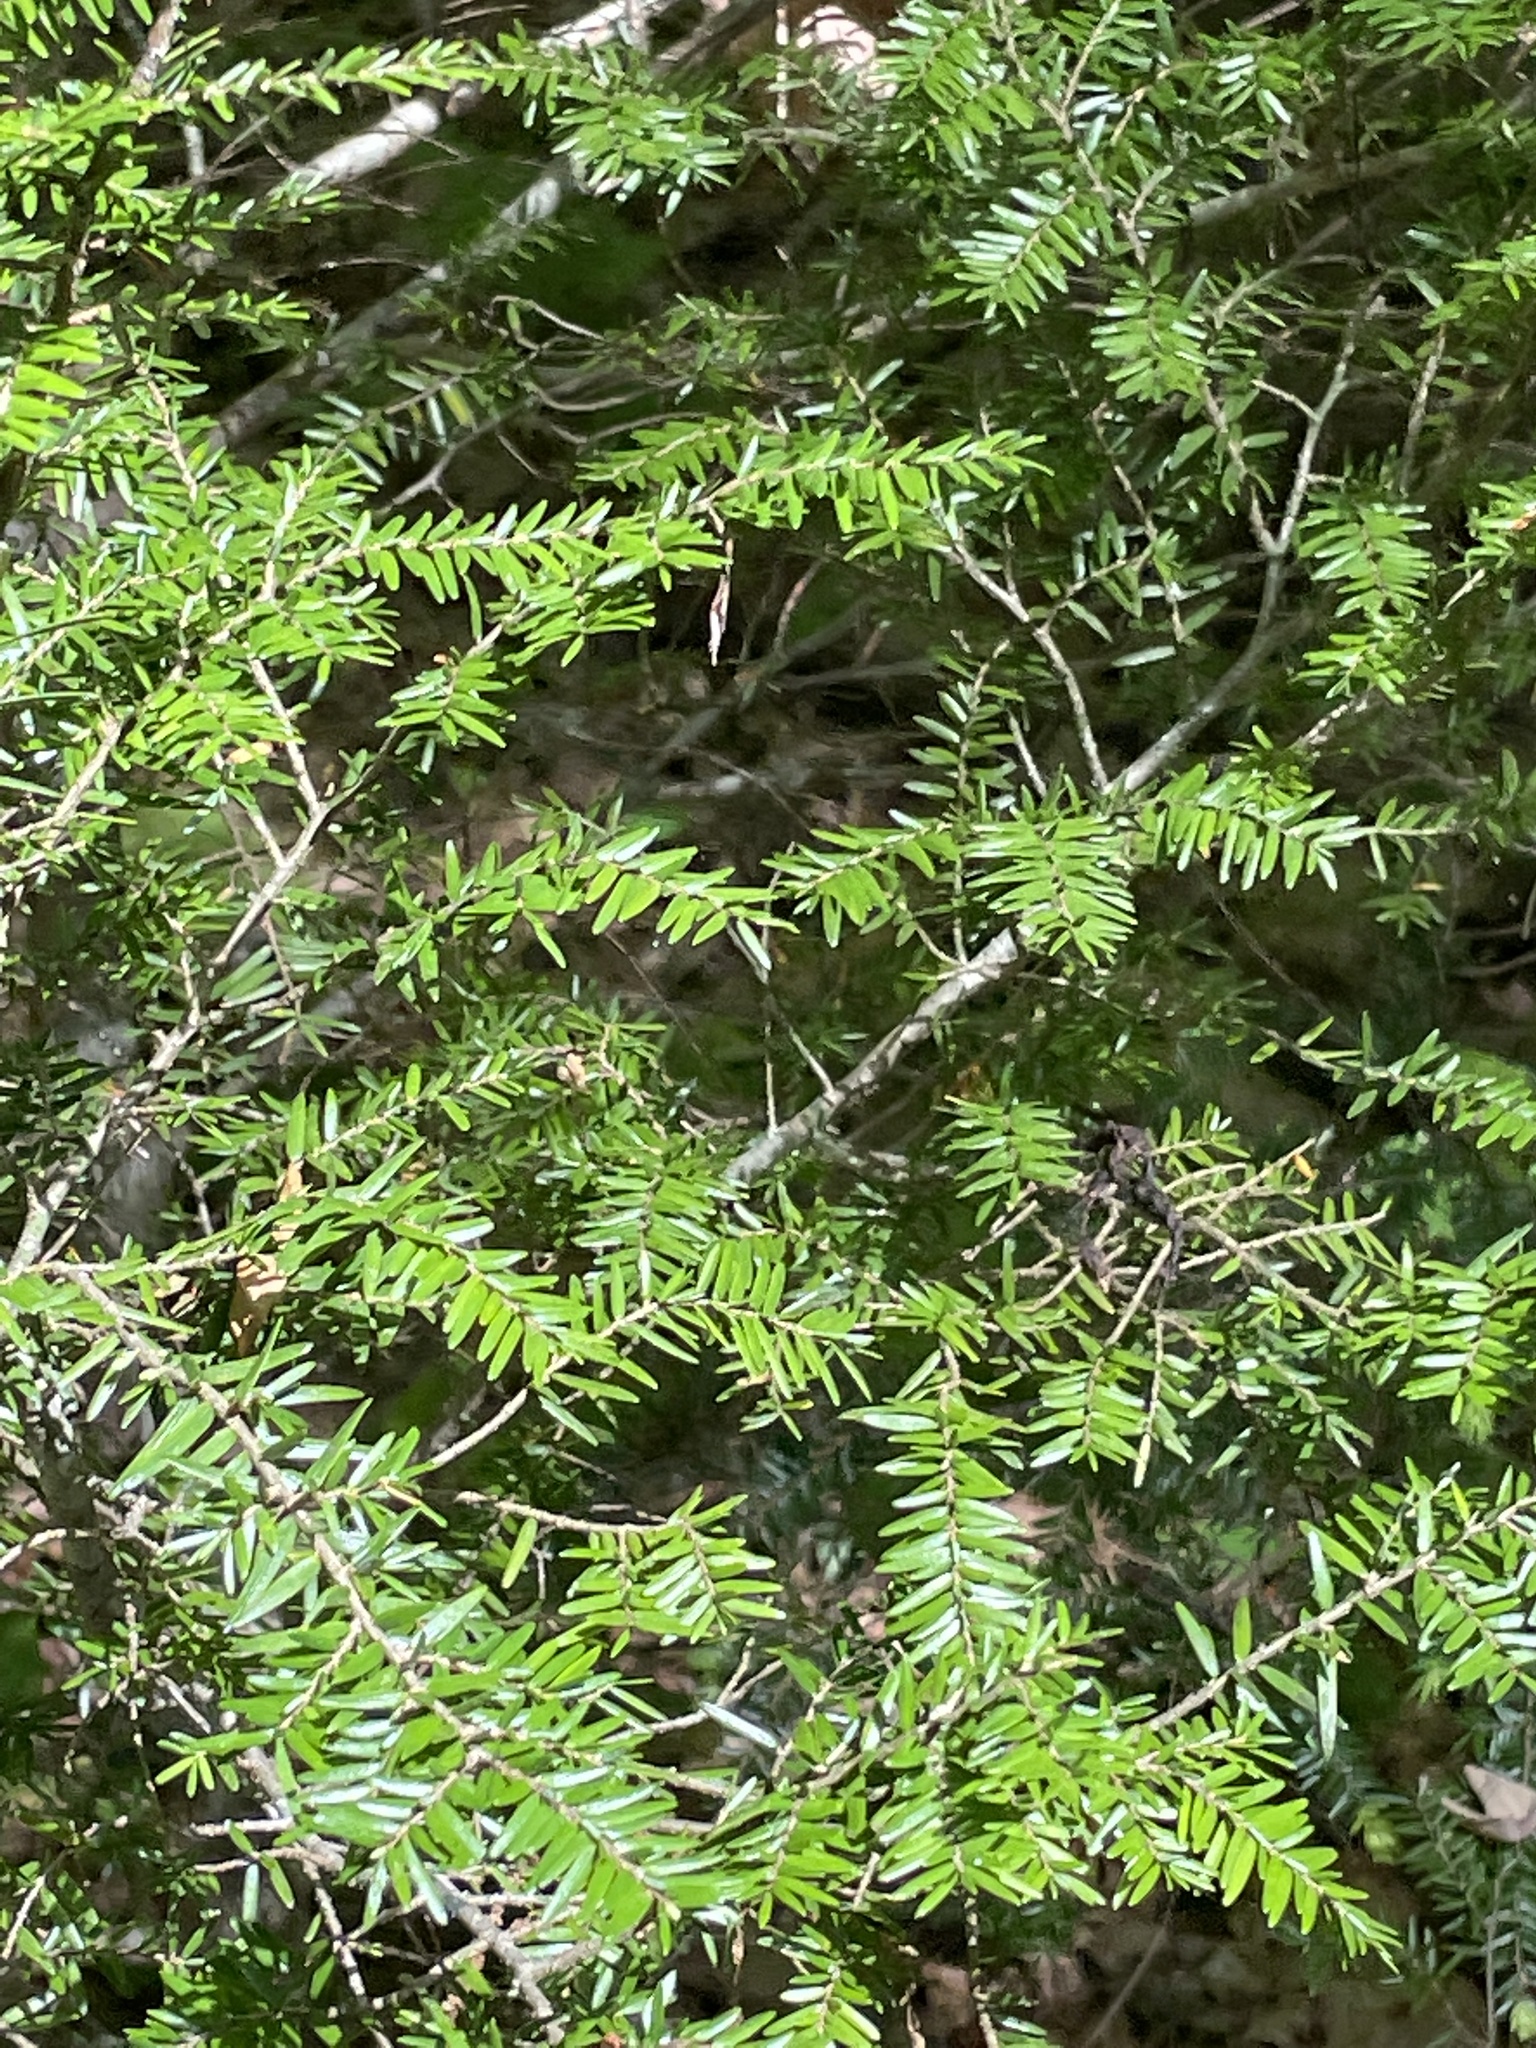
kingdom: Plantae
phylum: Tracheophyta
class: Pinopsida
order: Pinales
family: Pinaceae
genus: Tsuga
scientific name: Tsuga canadensis
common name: Eastern hemlock
